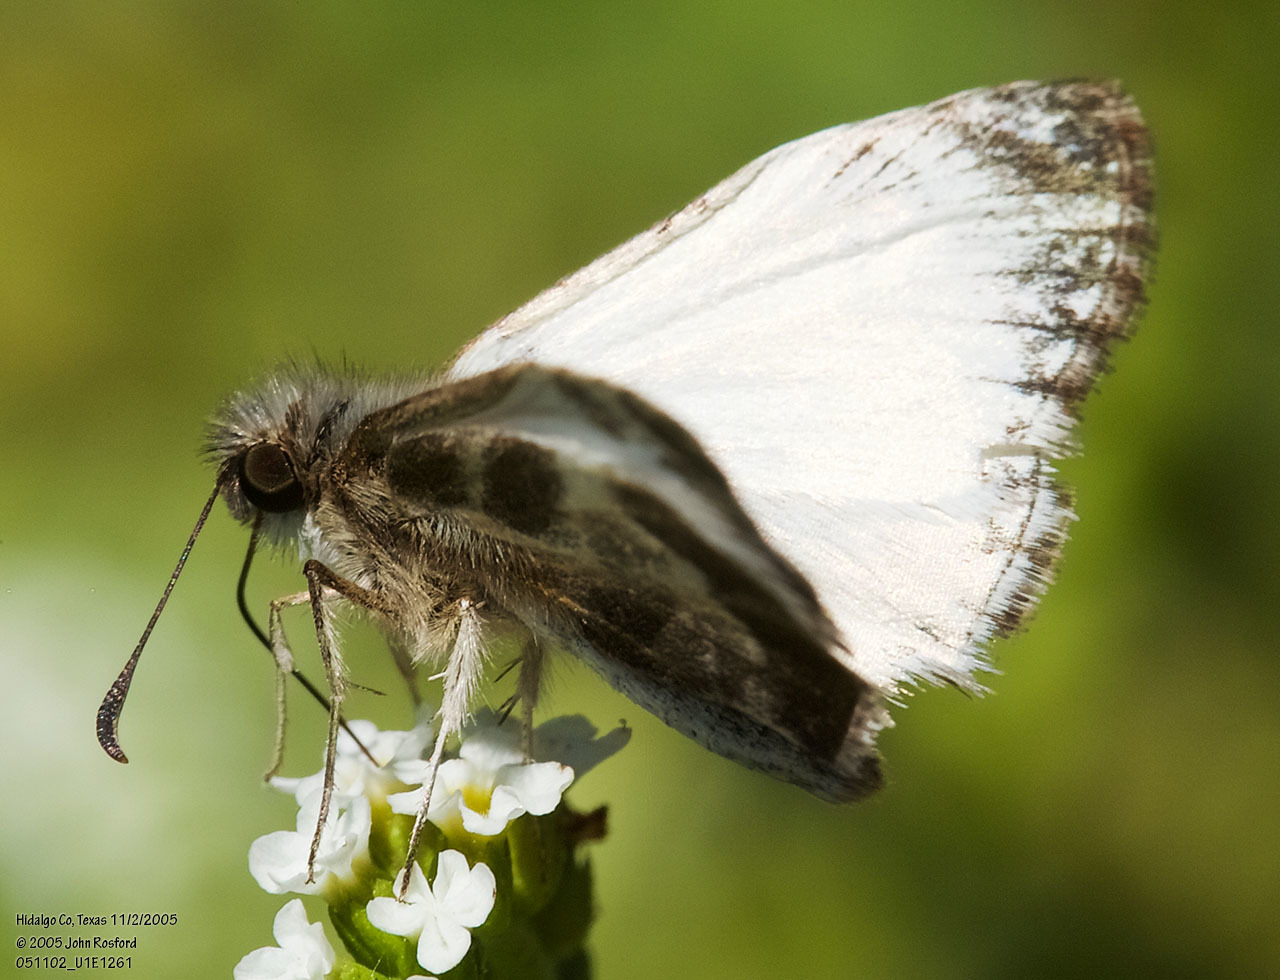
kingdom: Animalia
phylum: Arthropoda
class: Insecta
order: Lepidoptera
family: Hesperiidae
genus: Heliopetes
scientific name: Heliopetes macaira
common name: Turk's-cap white-skipper
